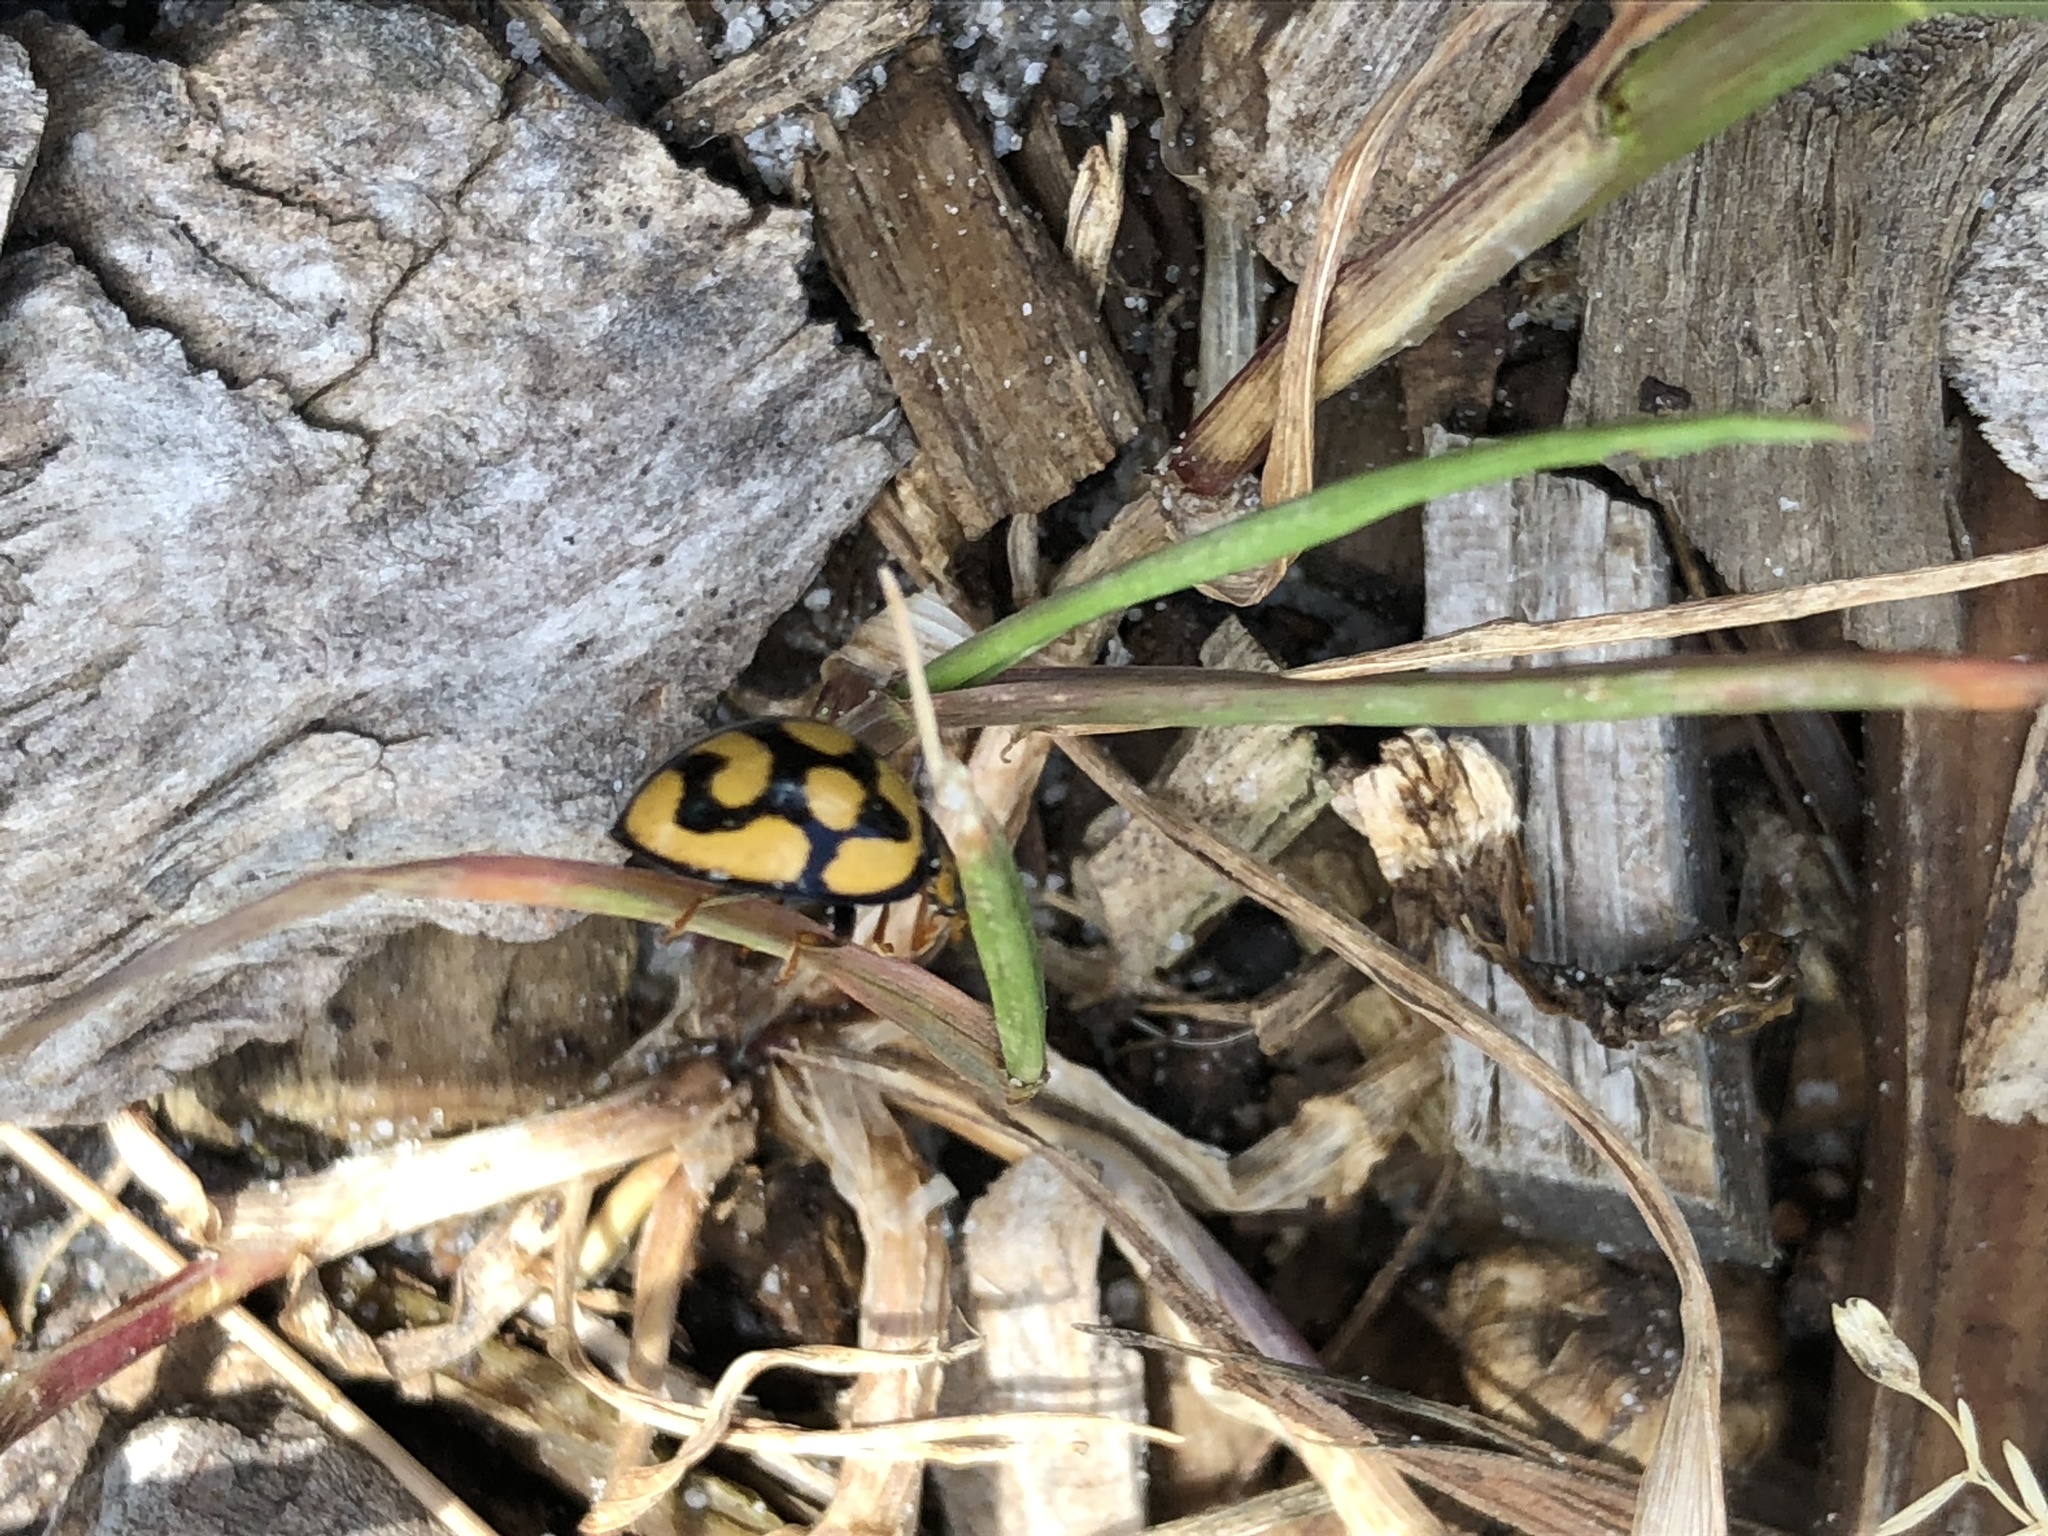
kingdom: Animalia
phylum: Arthropoda
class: Insecta
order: Coleoptera
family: Coccinellidae
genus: Cheilomenes
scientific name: Cheilomenes lunata
